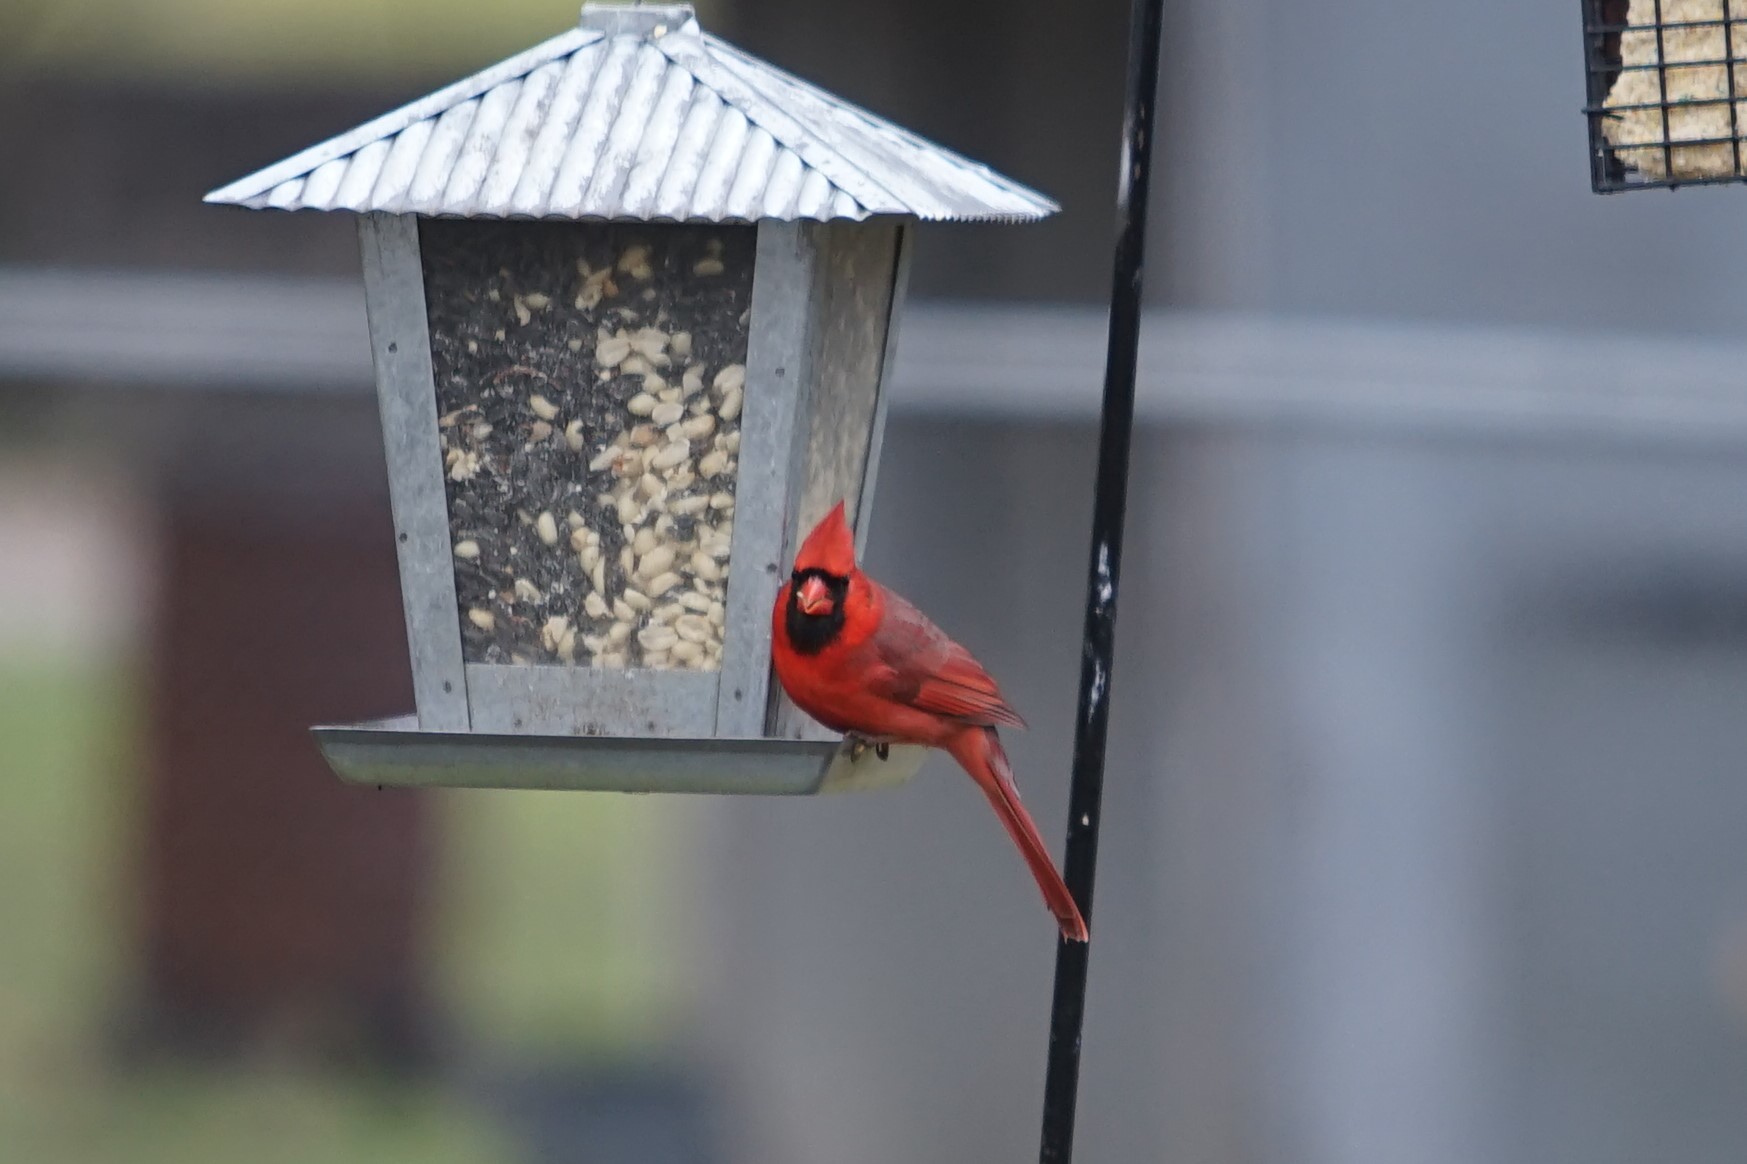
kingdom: Animalia
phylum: Chordata
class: Aves
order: Passeriformes
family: Cardinalidae
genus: Cardinalis
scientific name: Cardinalis cardinalis
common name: Northern cardinal
